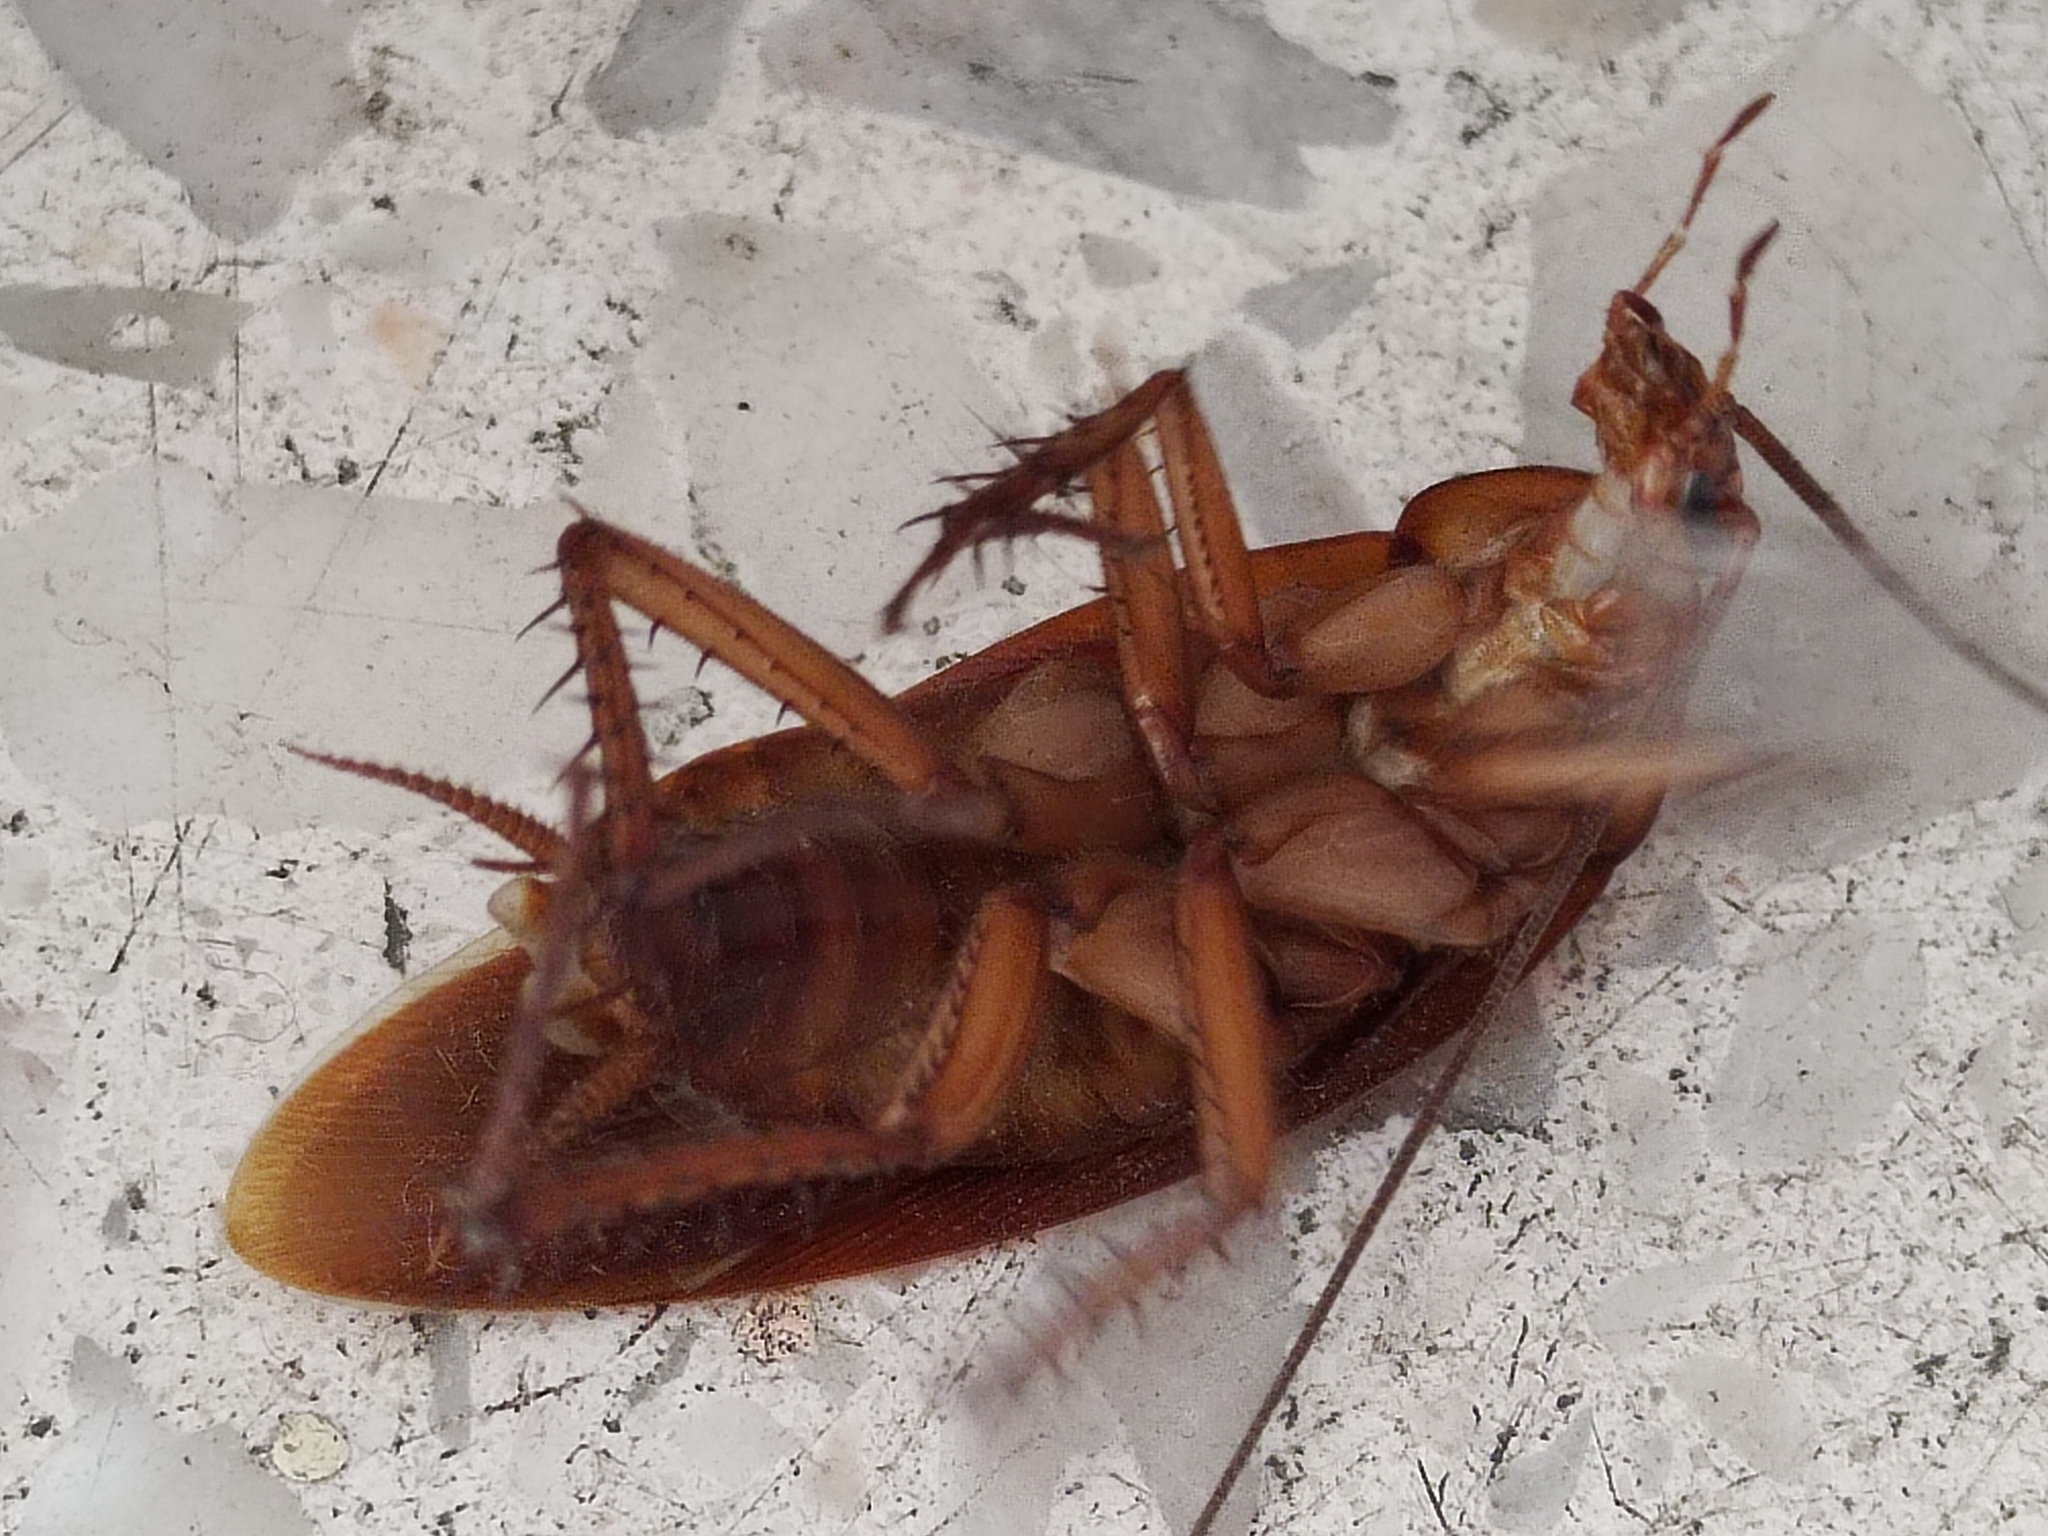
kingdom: Animalia
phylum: Arthropoda
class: Insecta
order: Blattodea
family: Blattidae
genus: Periplaneta
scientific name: Periplaneta americana
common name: American cockroach
